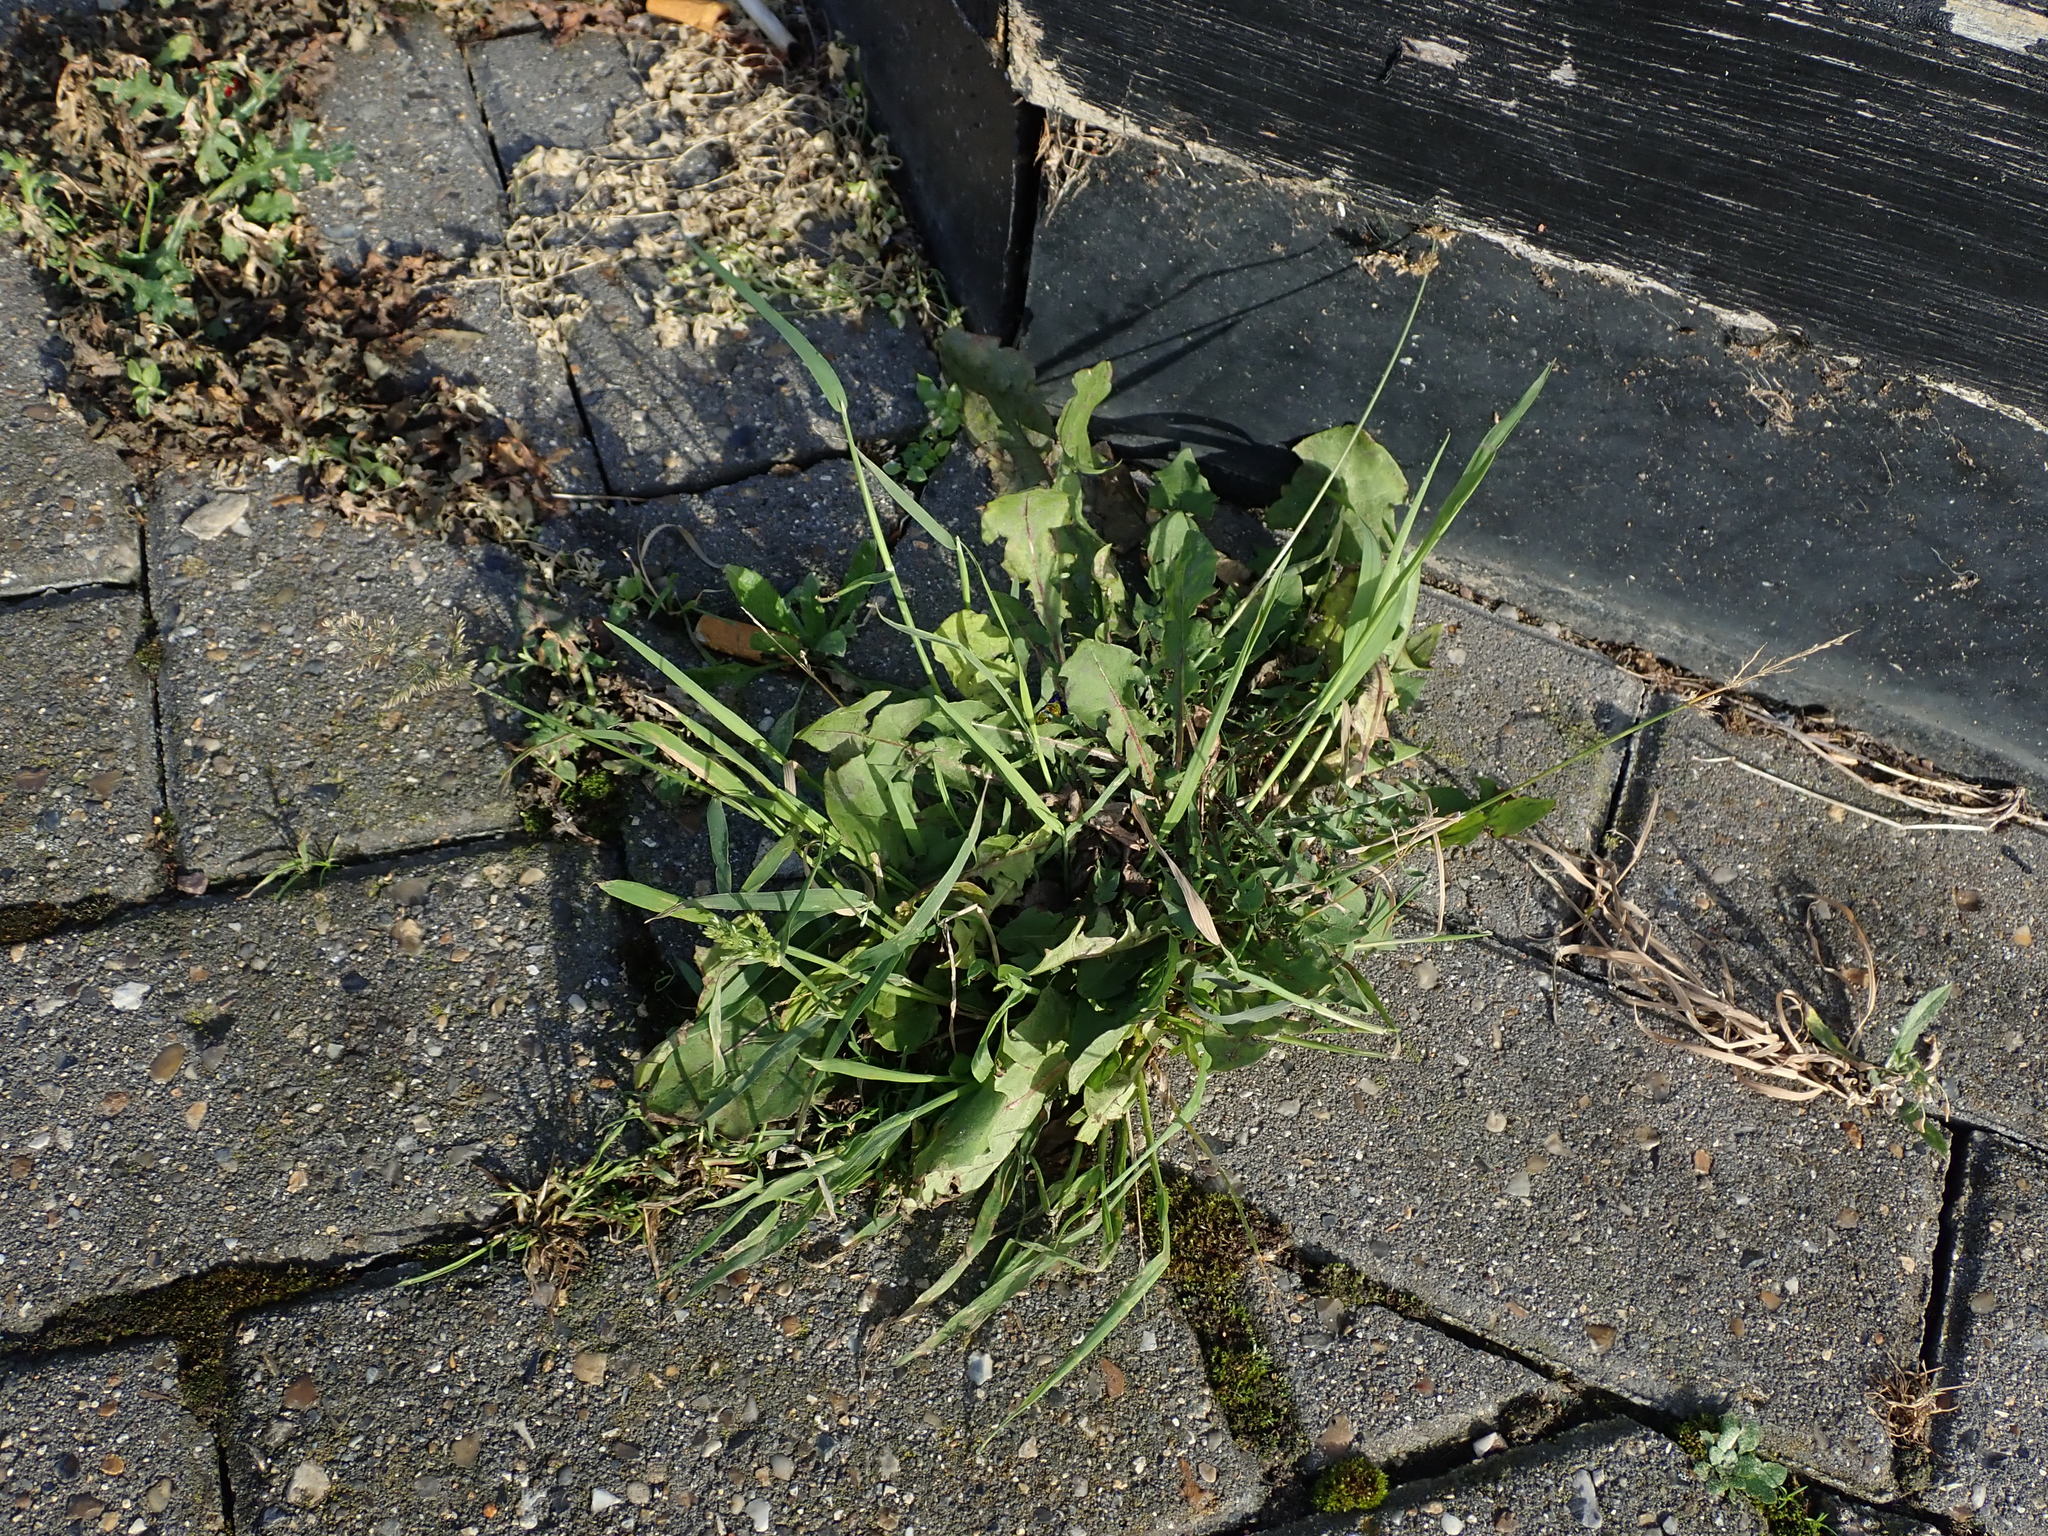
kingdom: Plantae
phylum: Tracheophyta
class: Liliopsida
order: Poales
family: Poaceae
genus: Polypogon
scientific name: Polypogon viridis
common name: Water bent
